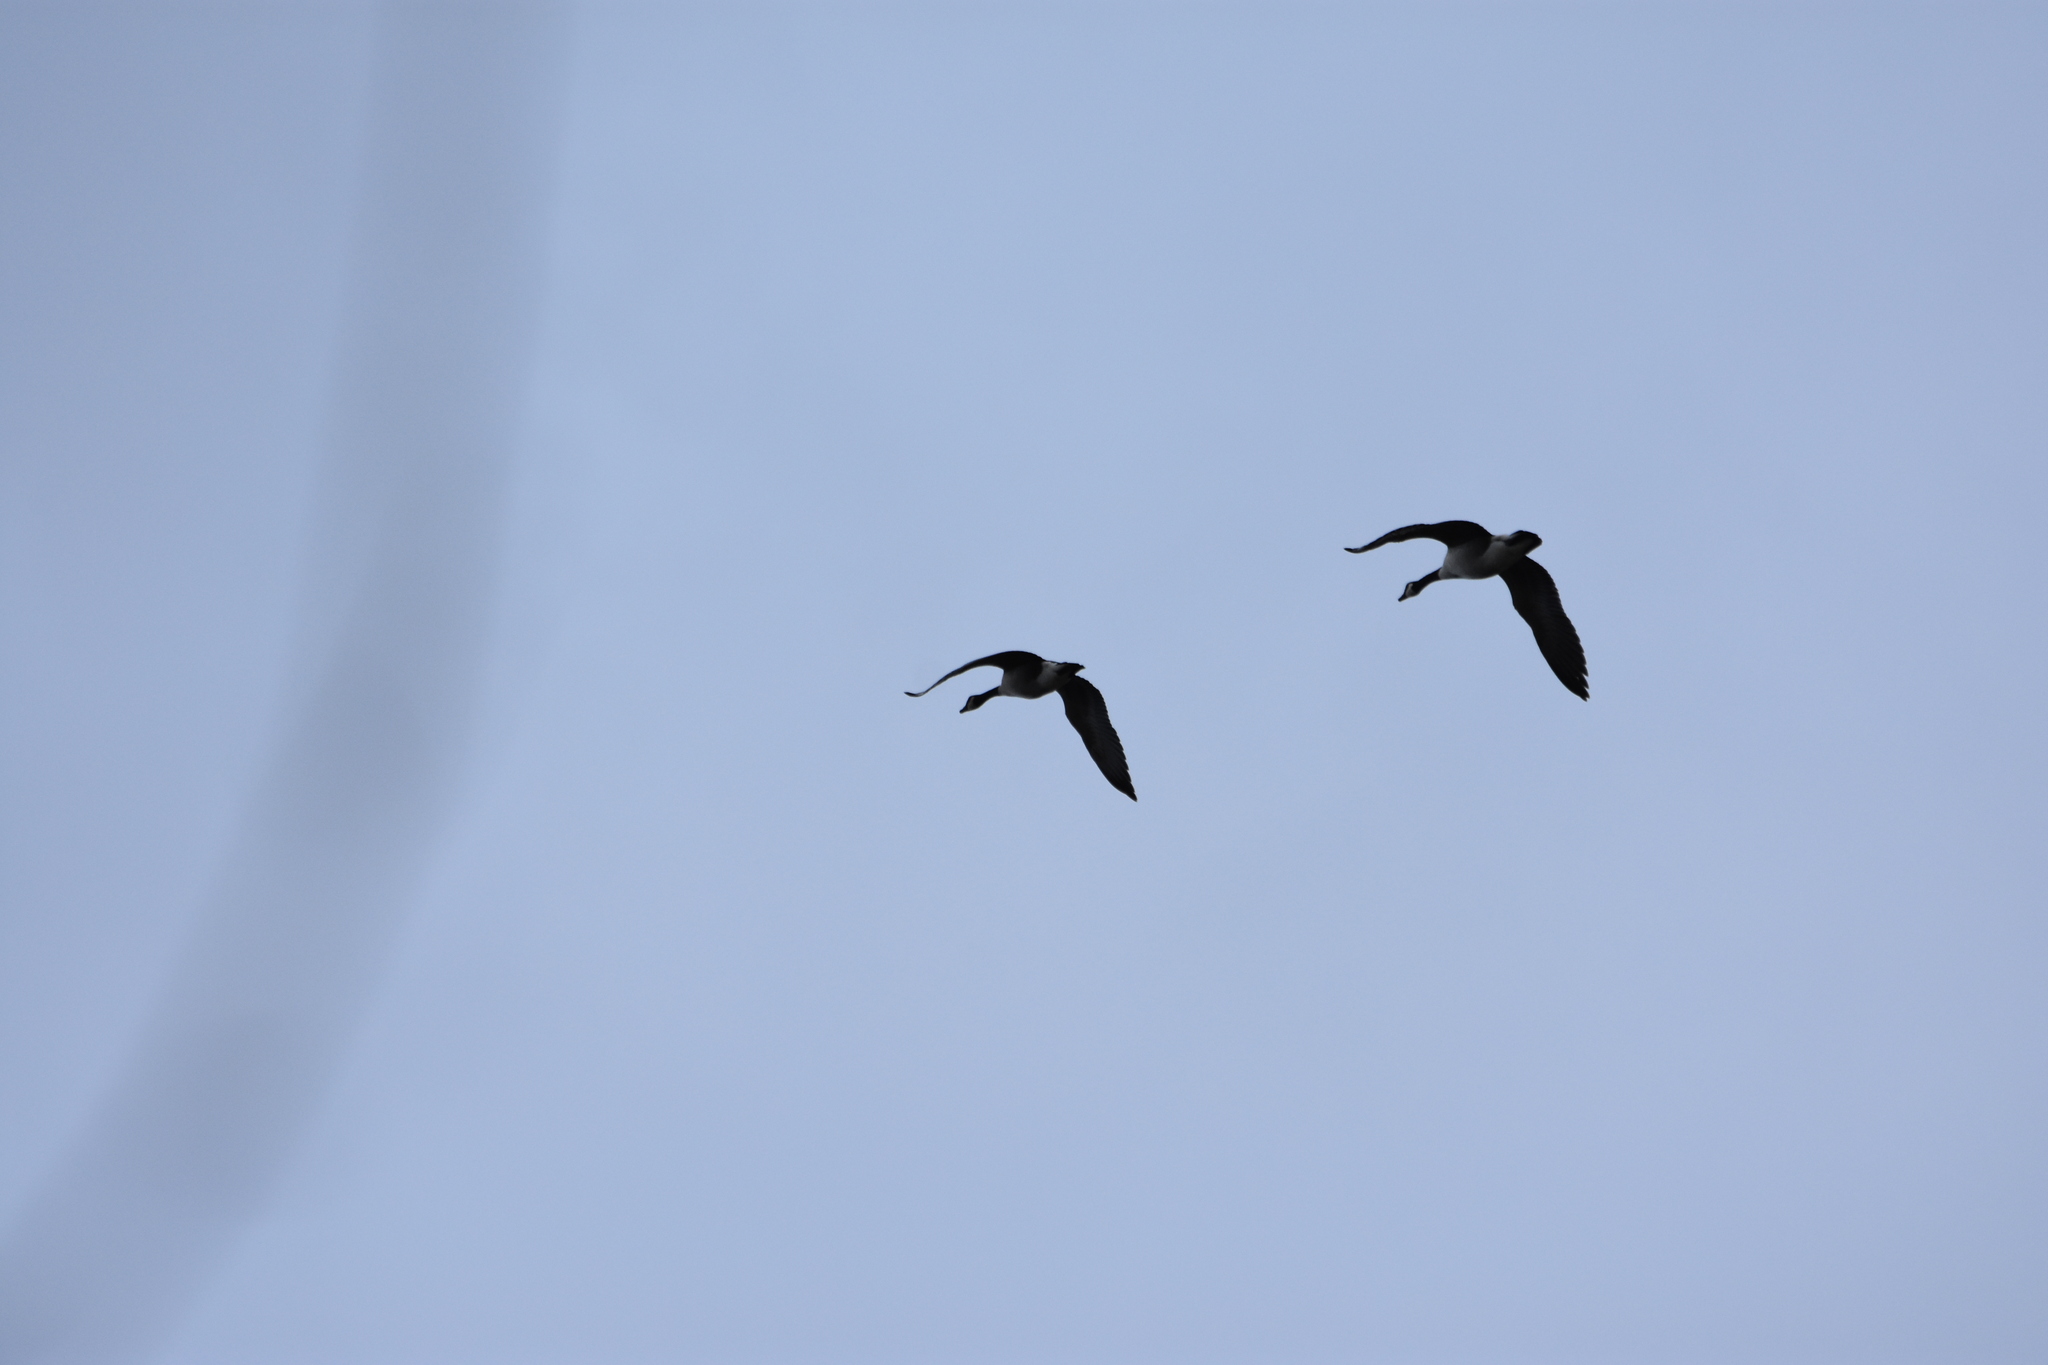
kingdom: Animalia
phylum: Chordata
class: Aves
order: Anseriformes
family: Anatidae
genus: Branta
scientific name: Branta canadensis
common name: Canada goose
